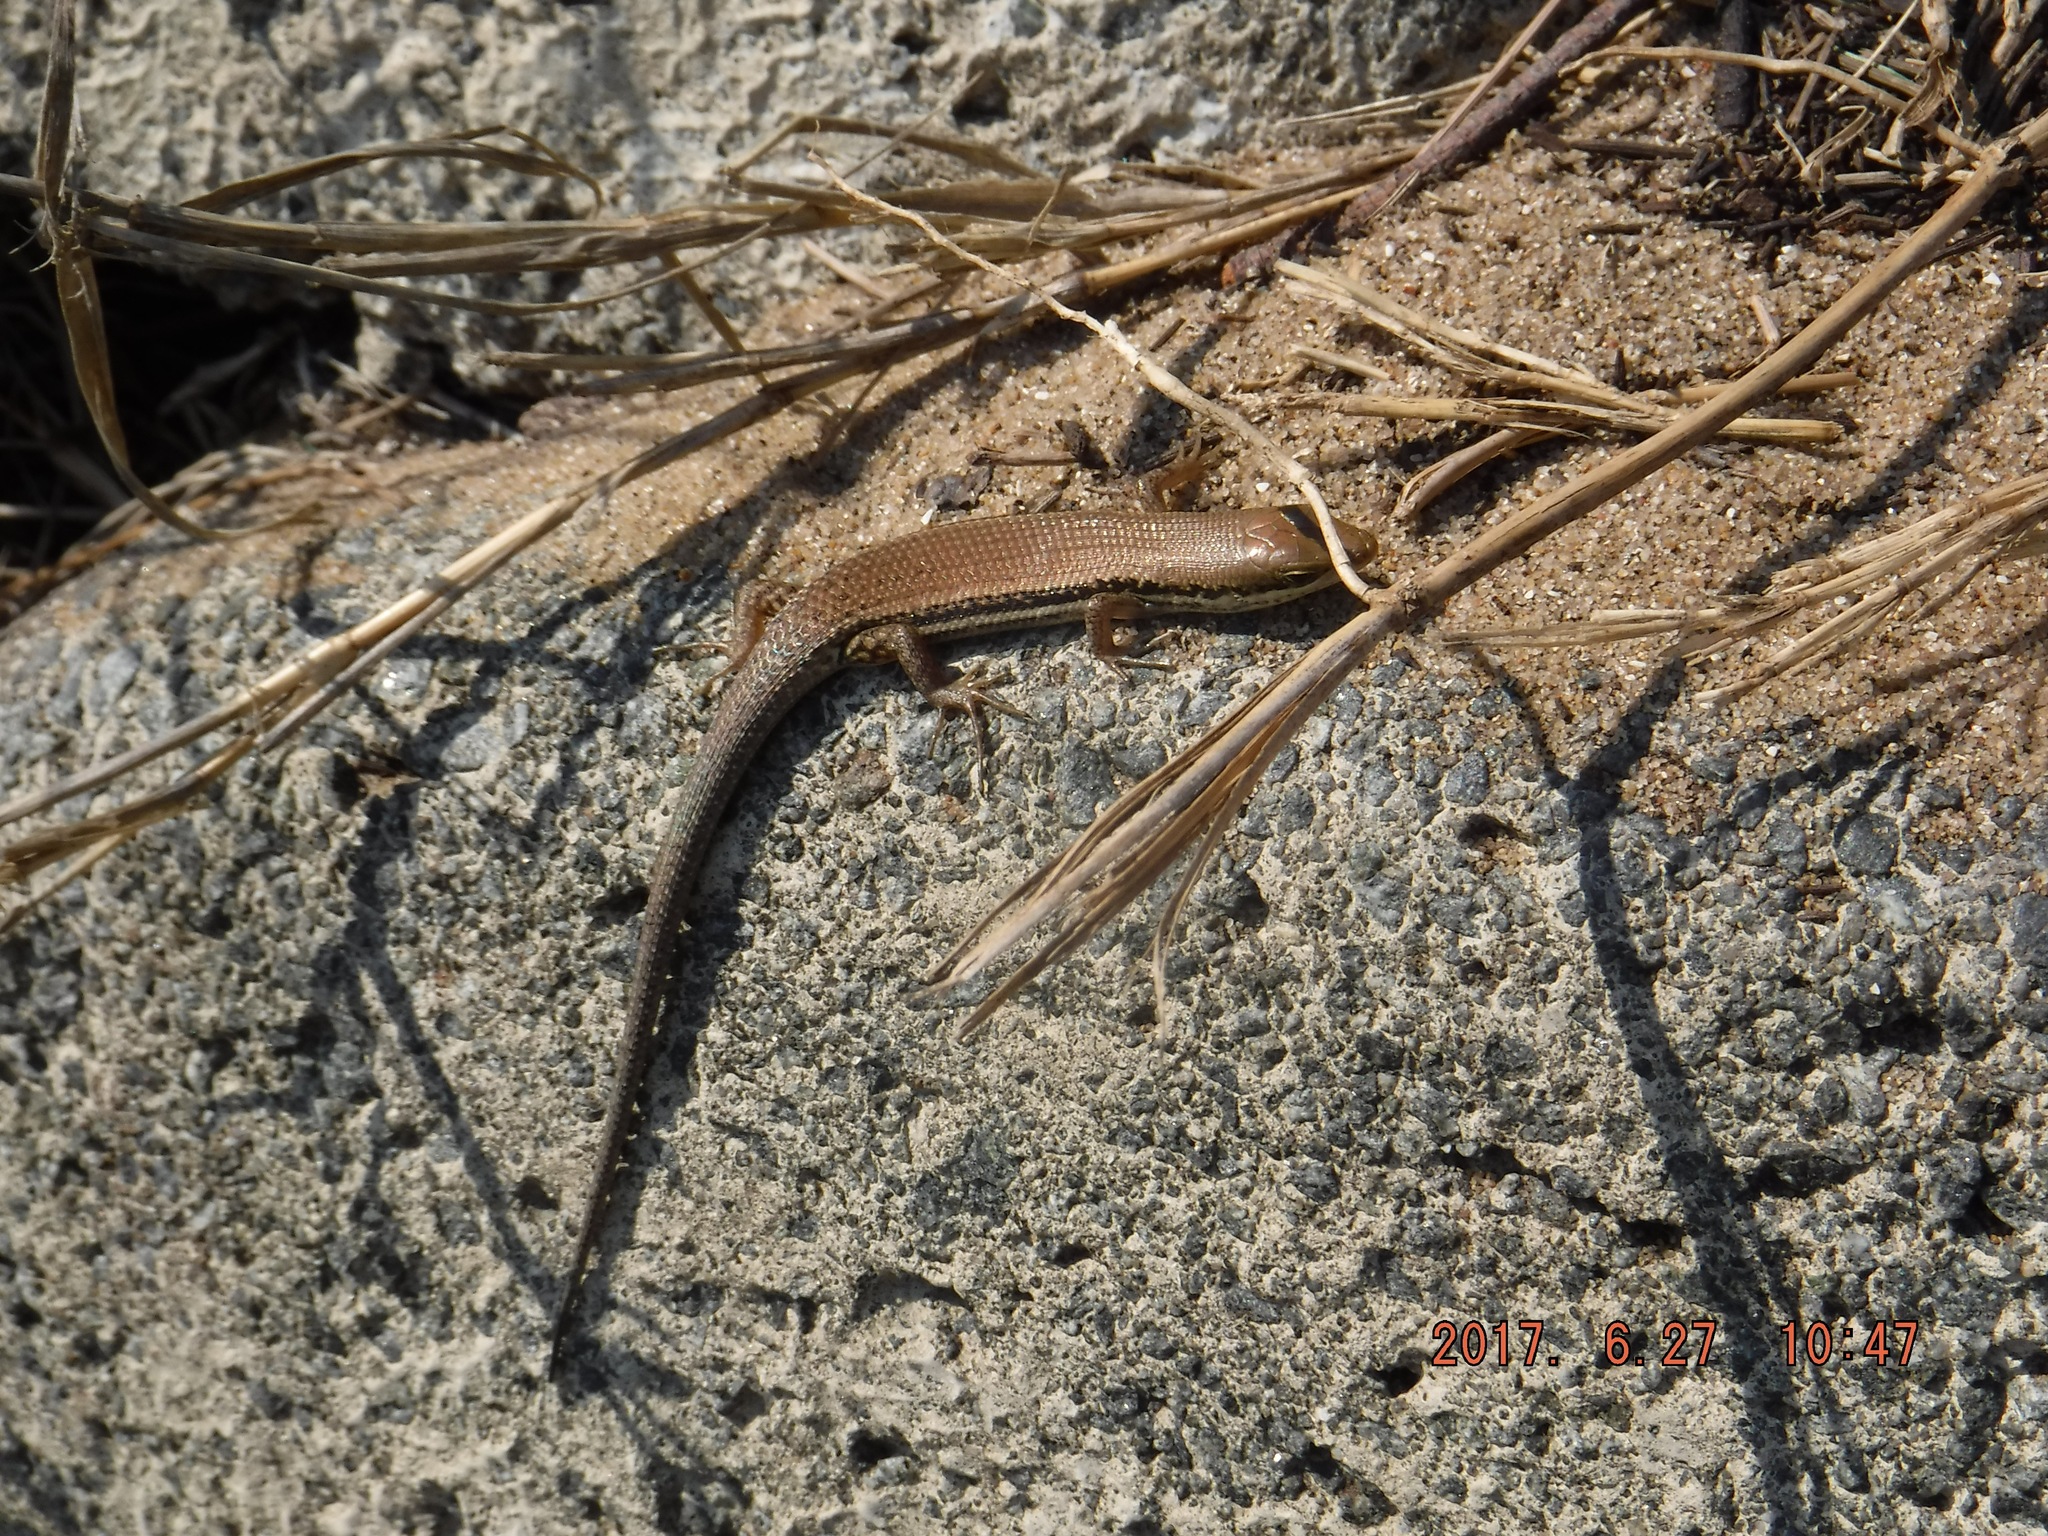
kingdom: Animalia
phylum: Chordata
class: Squamata
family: Scincidae
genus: Trachylepis
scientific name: Trachylepis depressa
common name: Eastern coastal skink
